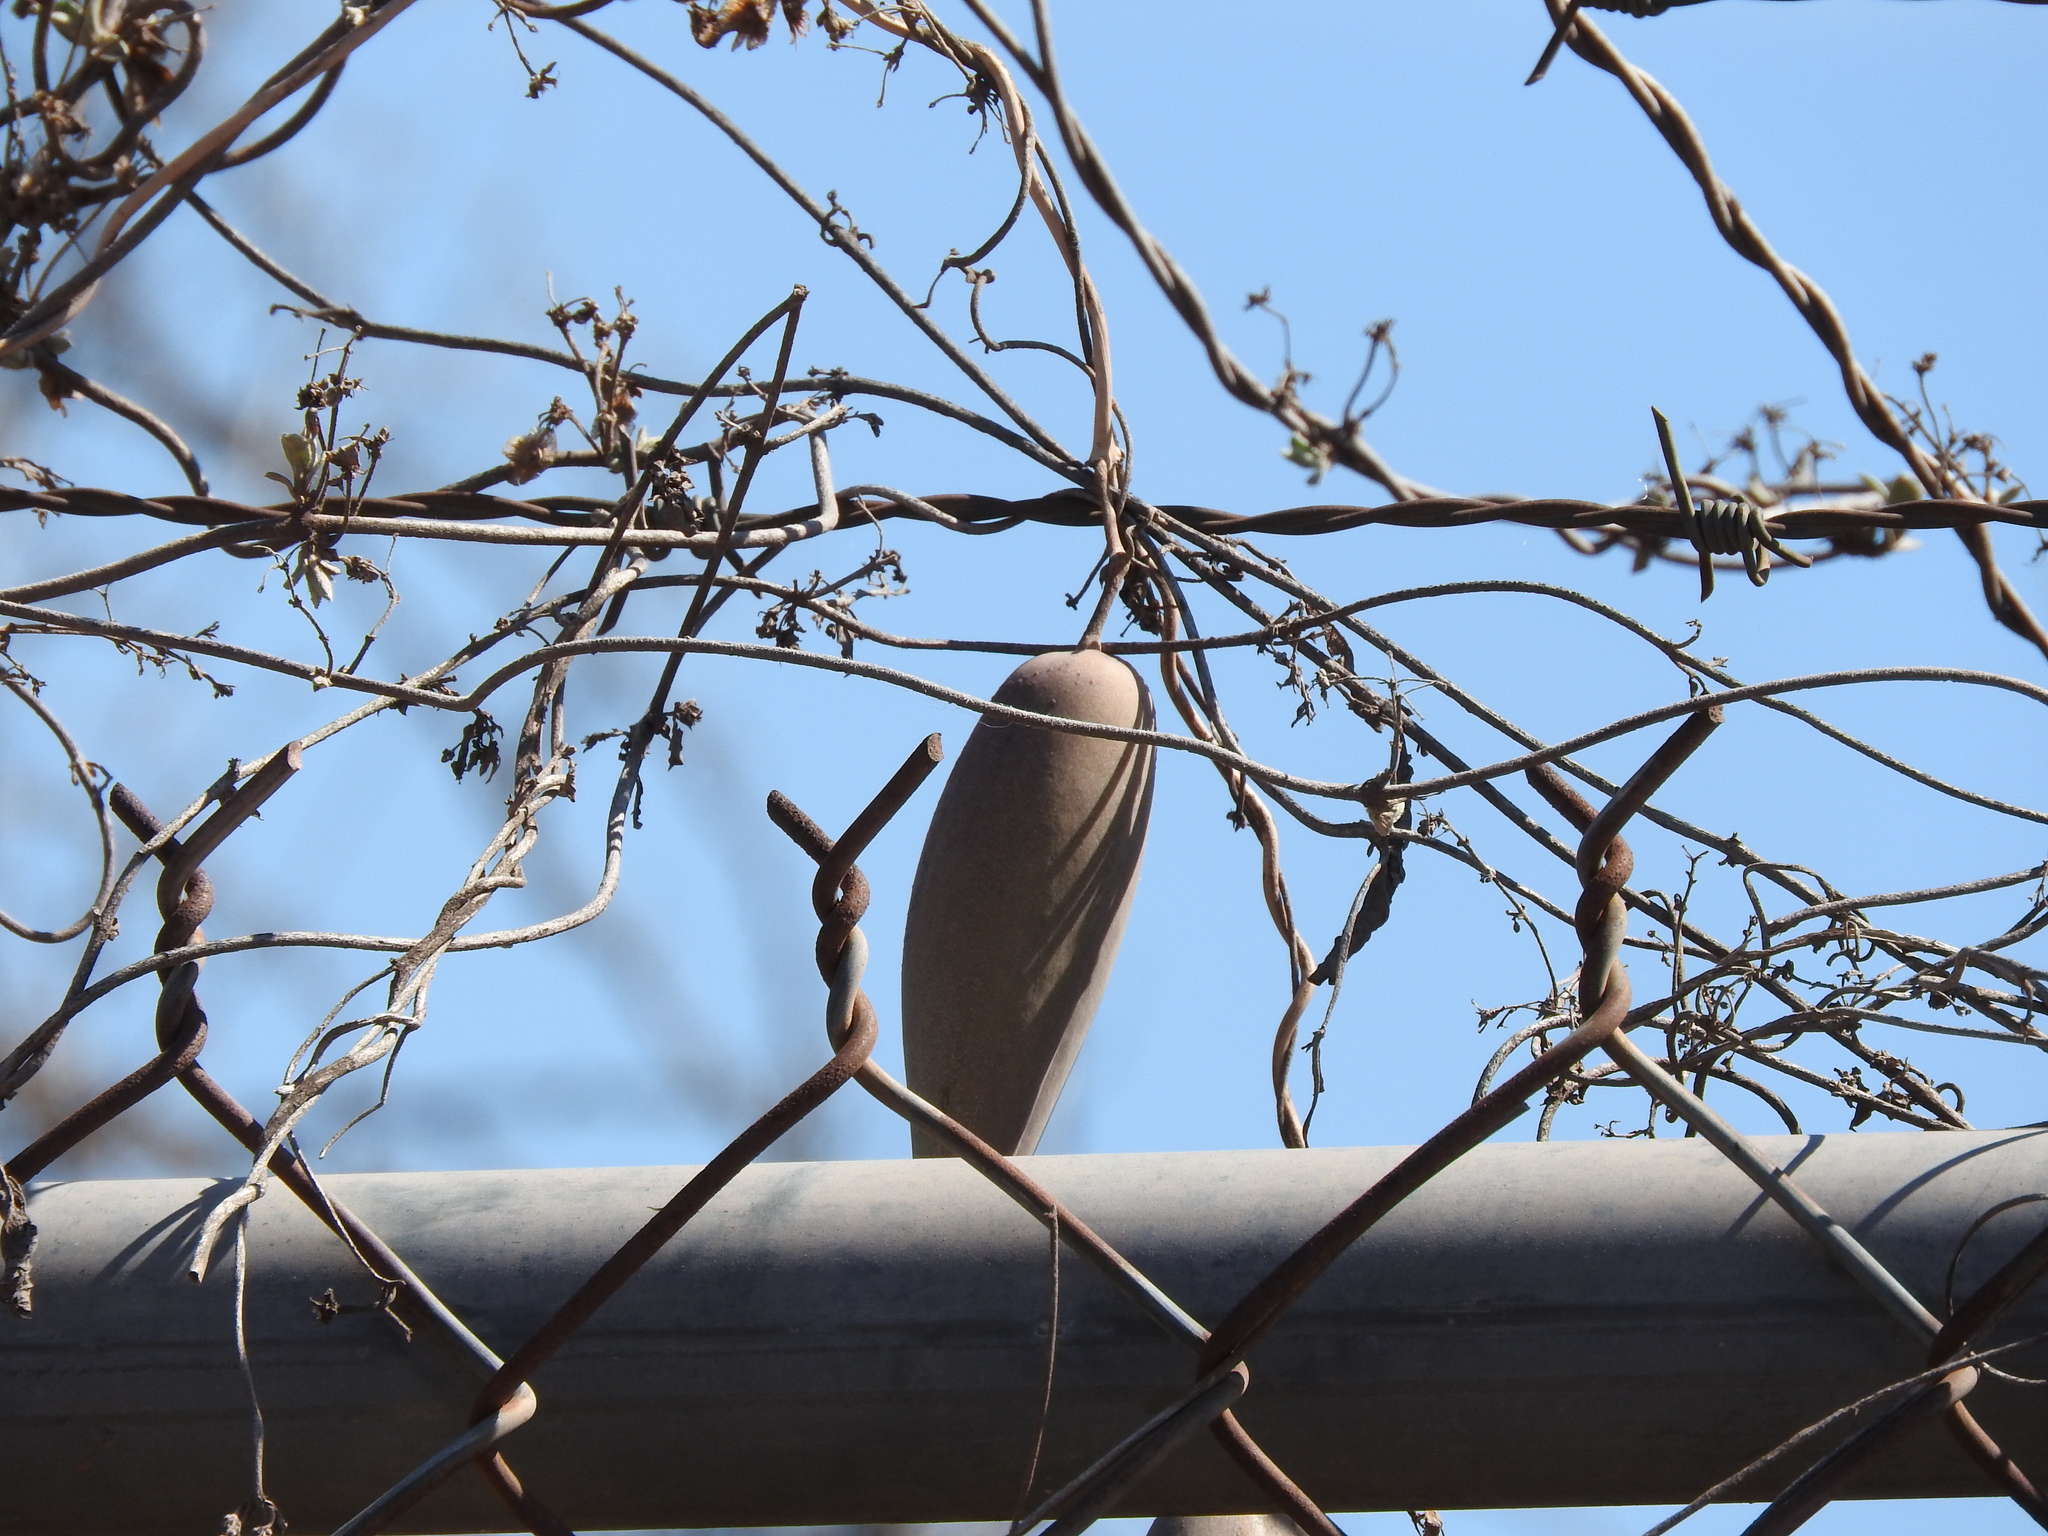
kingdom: Plantae
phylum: Tracheophyta
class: Magnoliopsida
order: Gentianales
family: Apocynaceae
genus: Funastrum
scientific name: Funastrum pannosum
